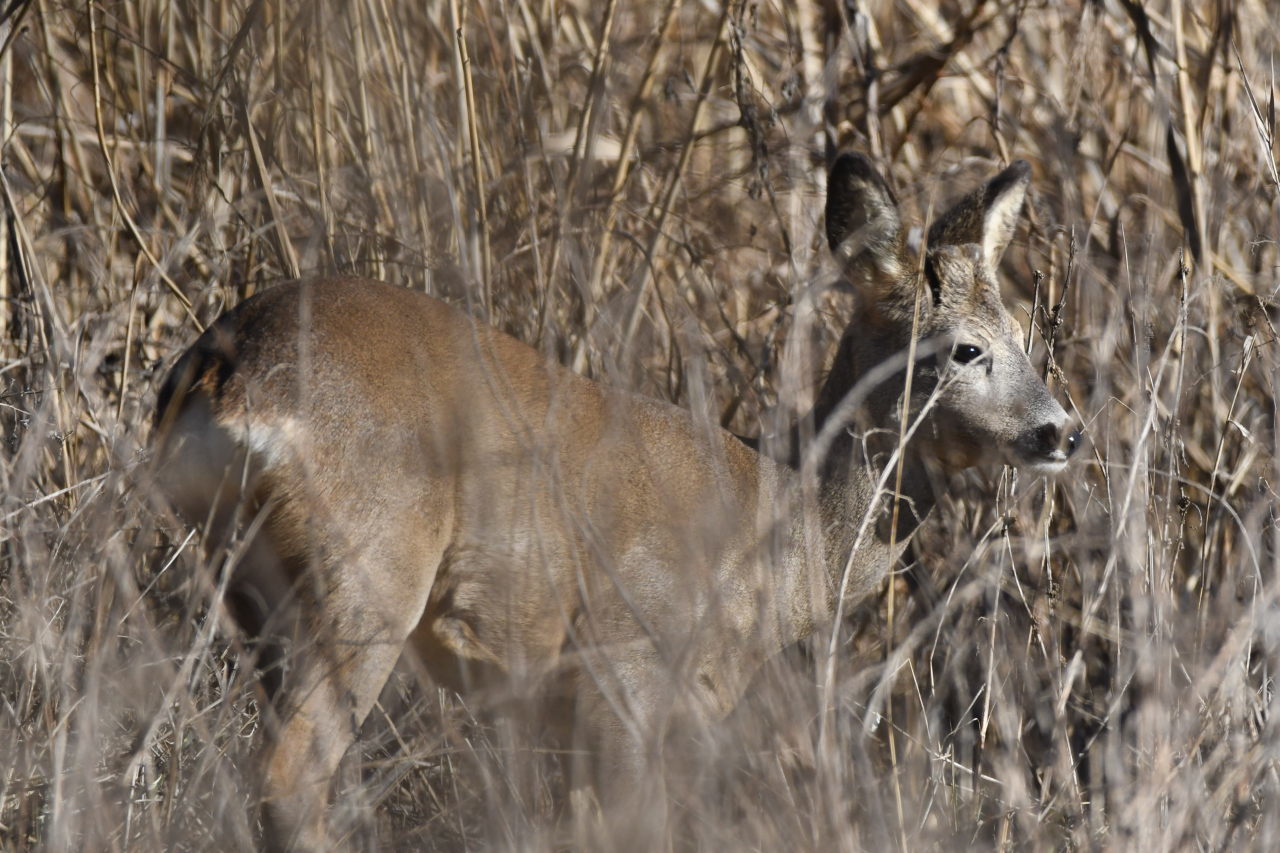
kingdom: Animalia
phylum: Chordata
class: Mammalia
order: Artiodactyla
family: Cervidae
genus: Capreolus
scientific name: Capreolus capreolus
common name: Western roe deer
